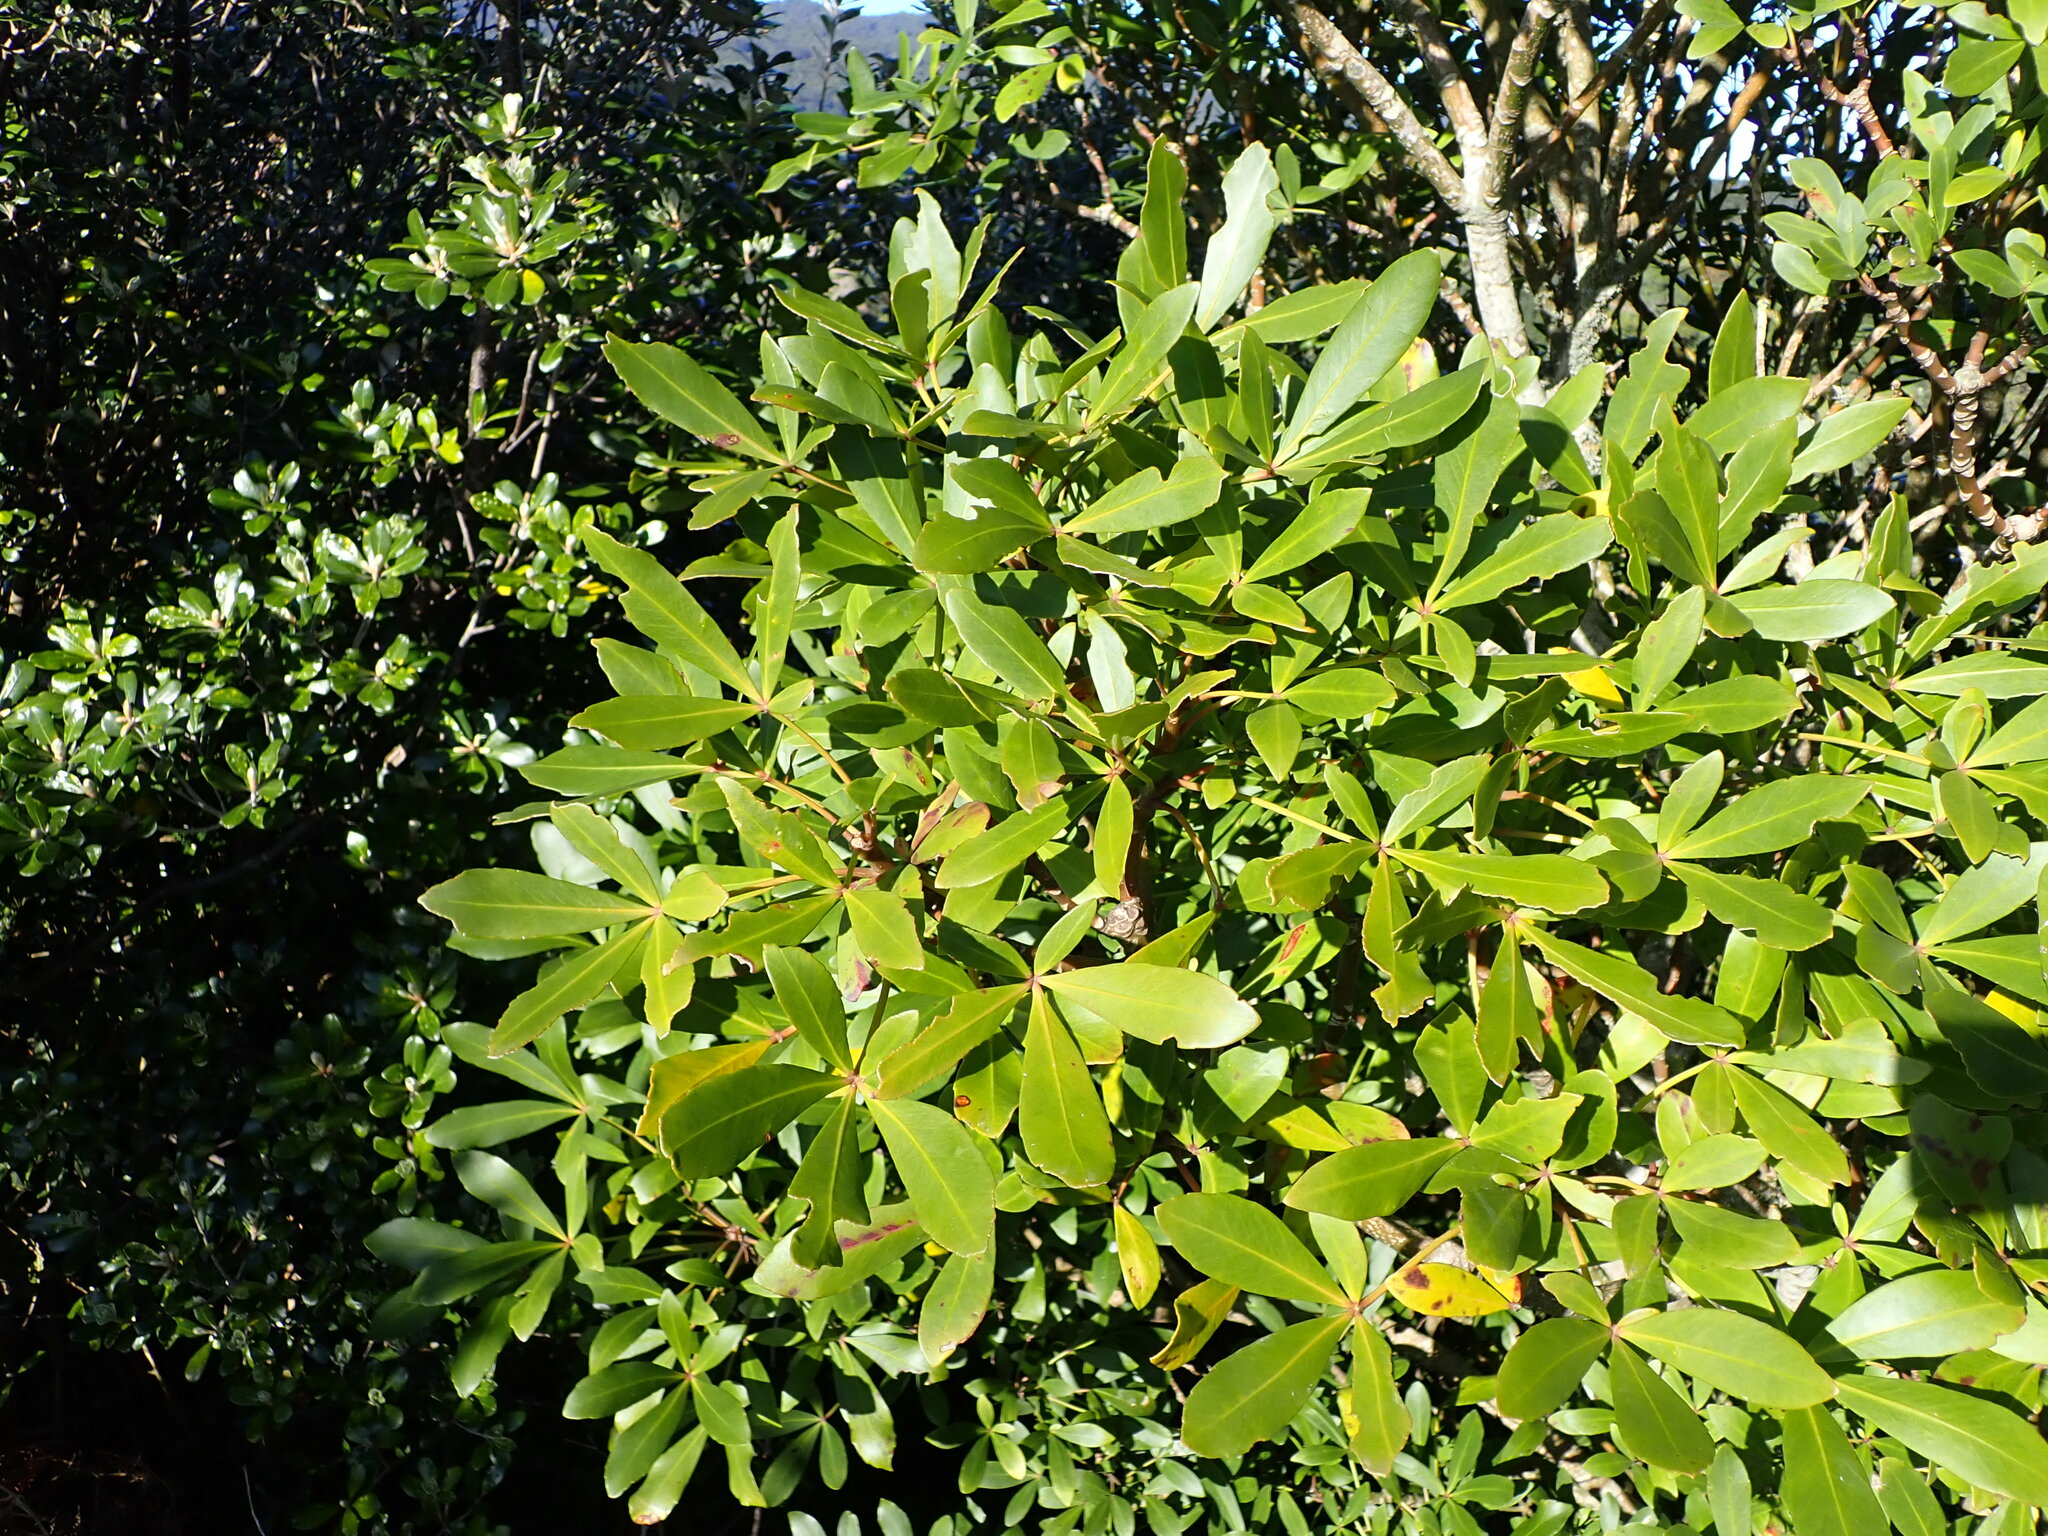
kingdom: Plantae
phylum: Tracheophyta
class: Magnoliopsida
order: Apiales
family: Araliaceae
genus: Pseudopanax
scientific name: Pseudopanax lessonii
